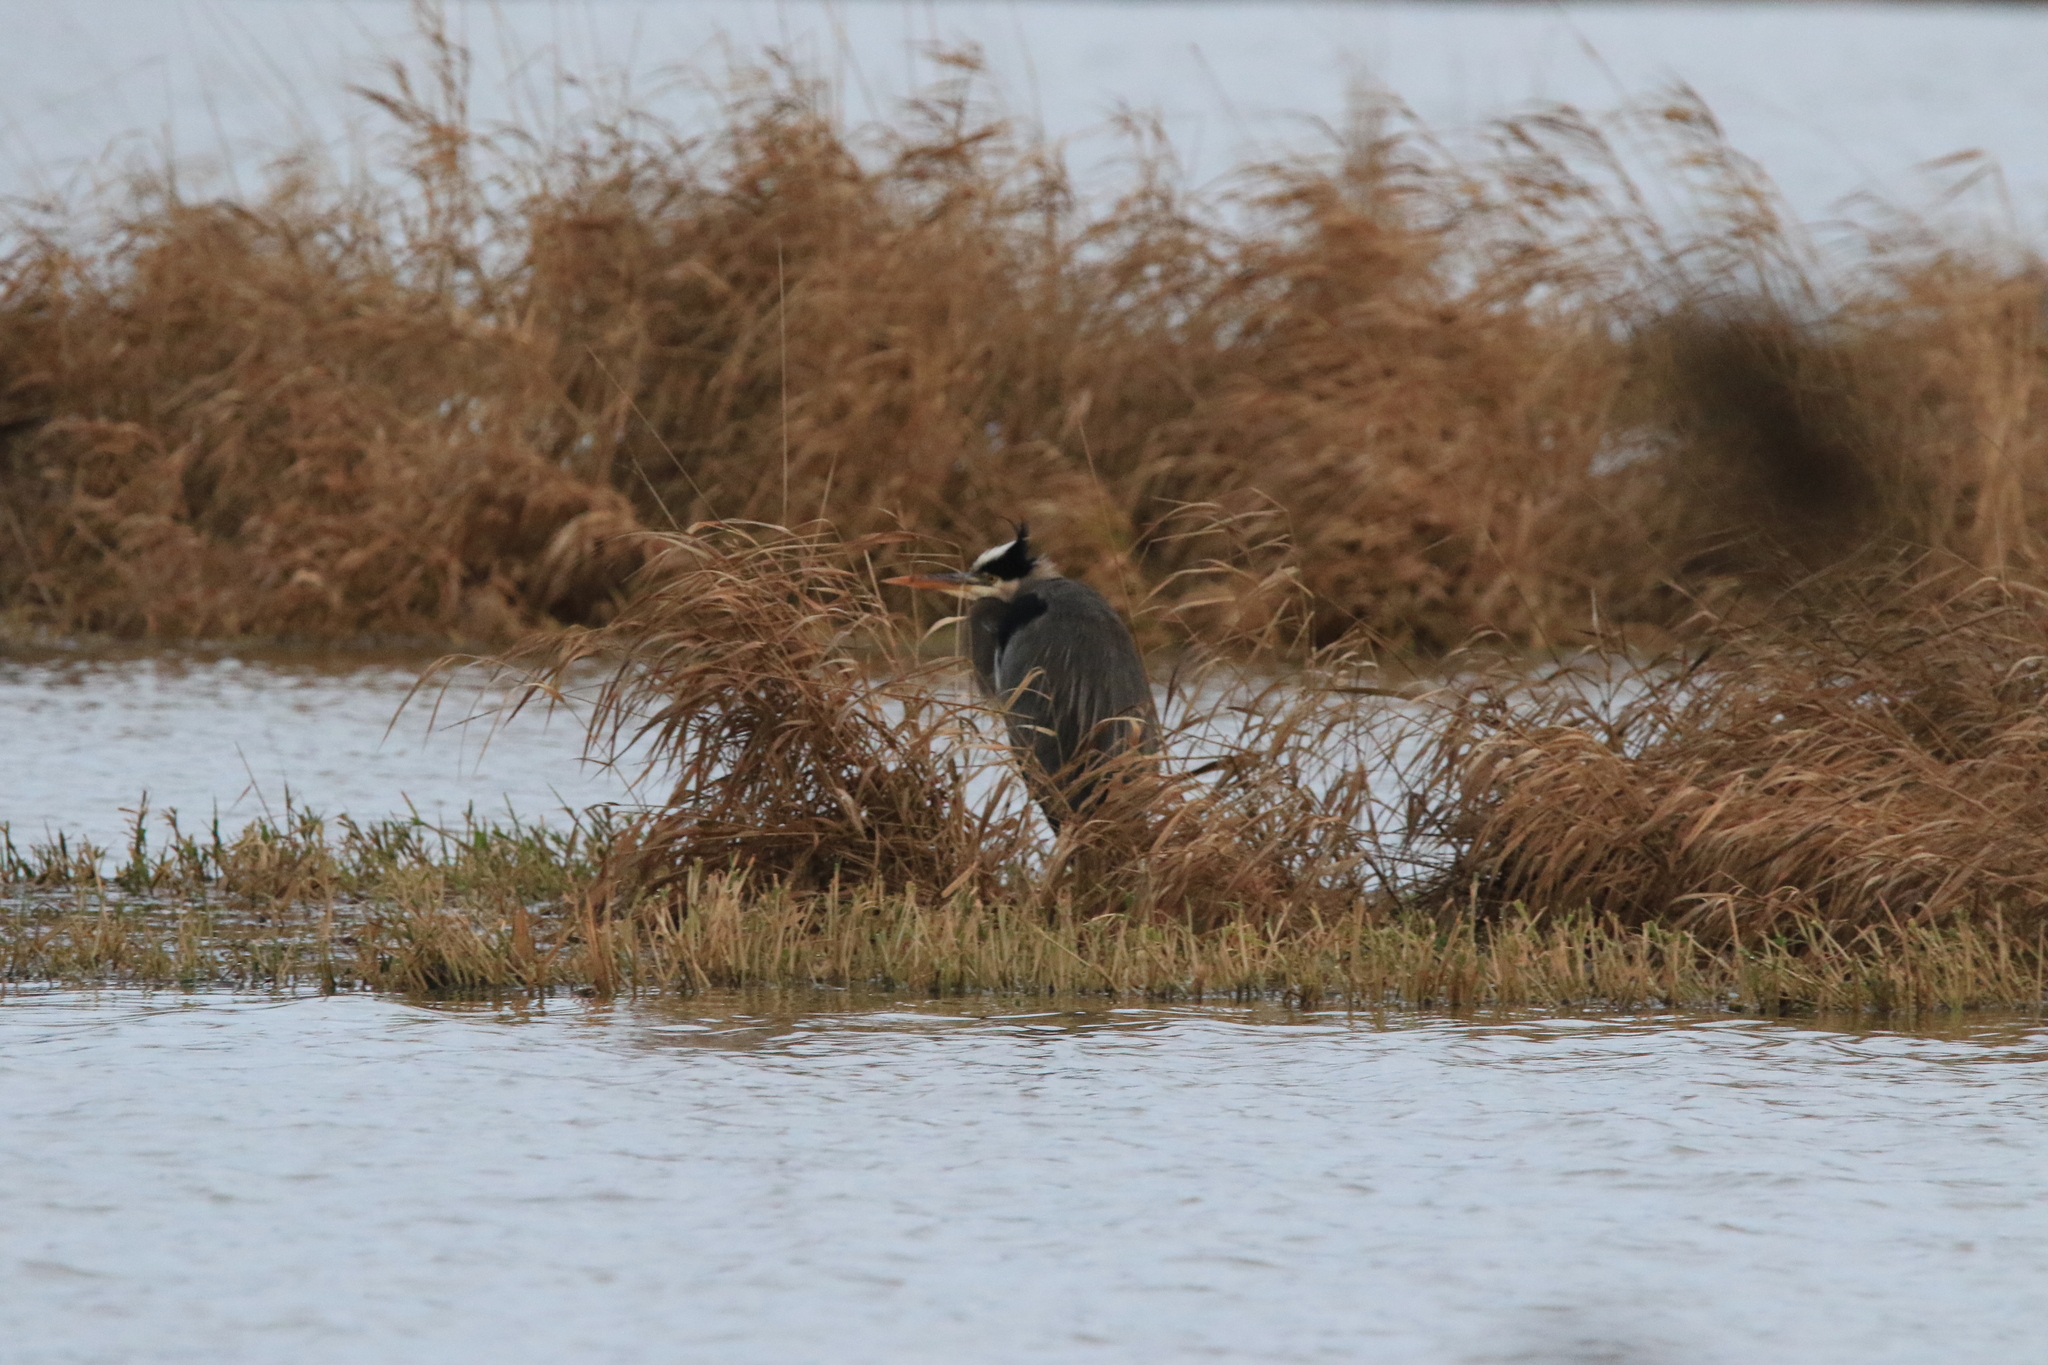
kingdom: Animalia
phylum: Chordata
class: Aves
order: Pelecaniformes
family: Ardeidae
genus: Ardea
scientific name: Ardea herodias
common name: Great blue heron
